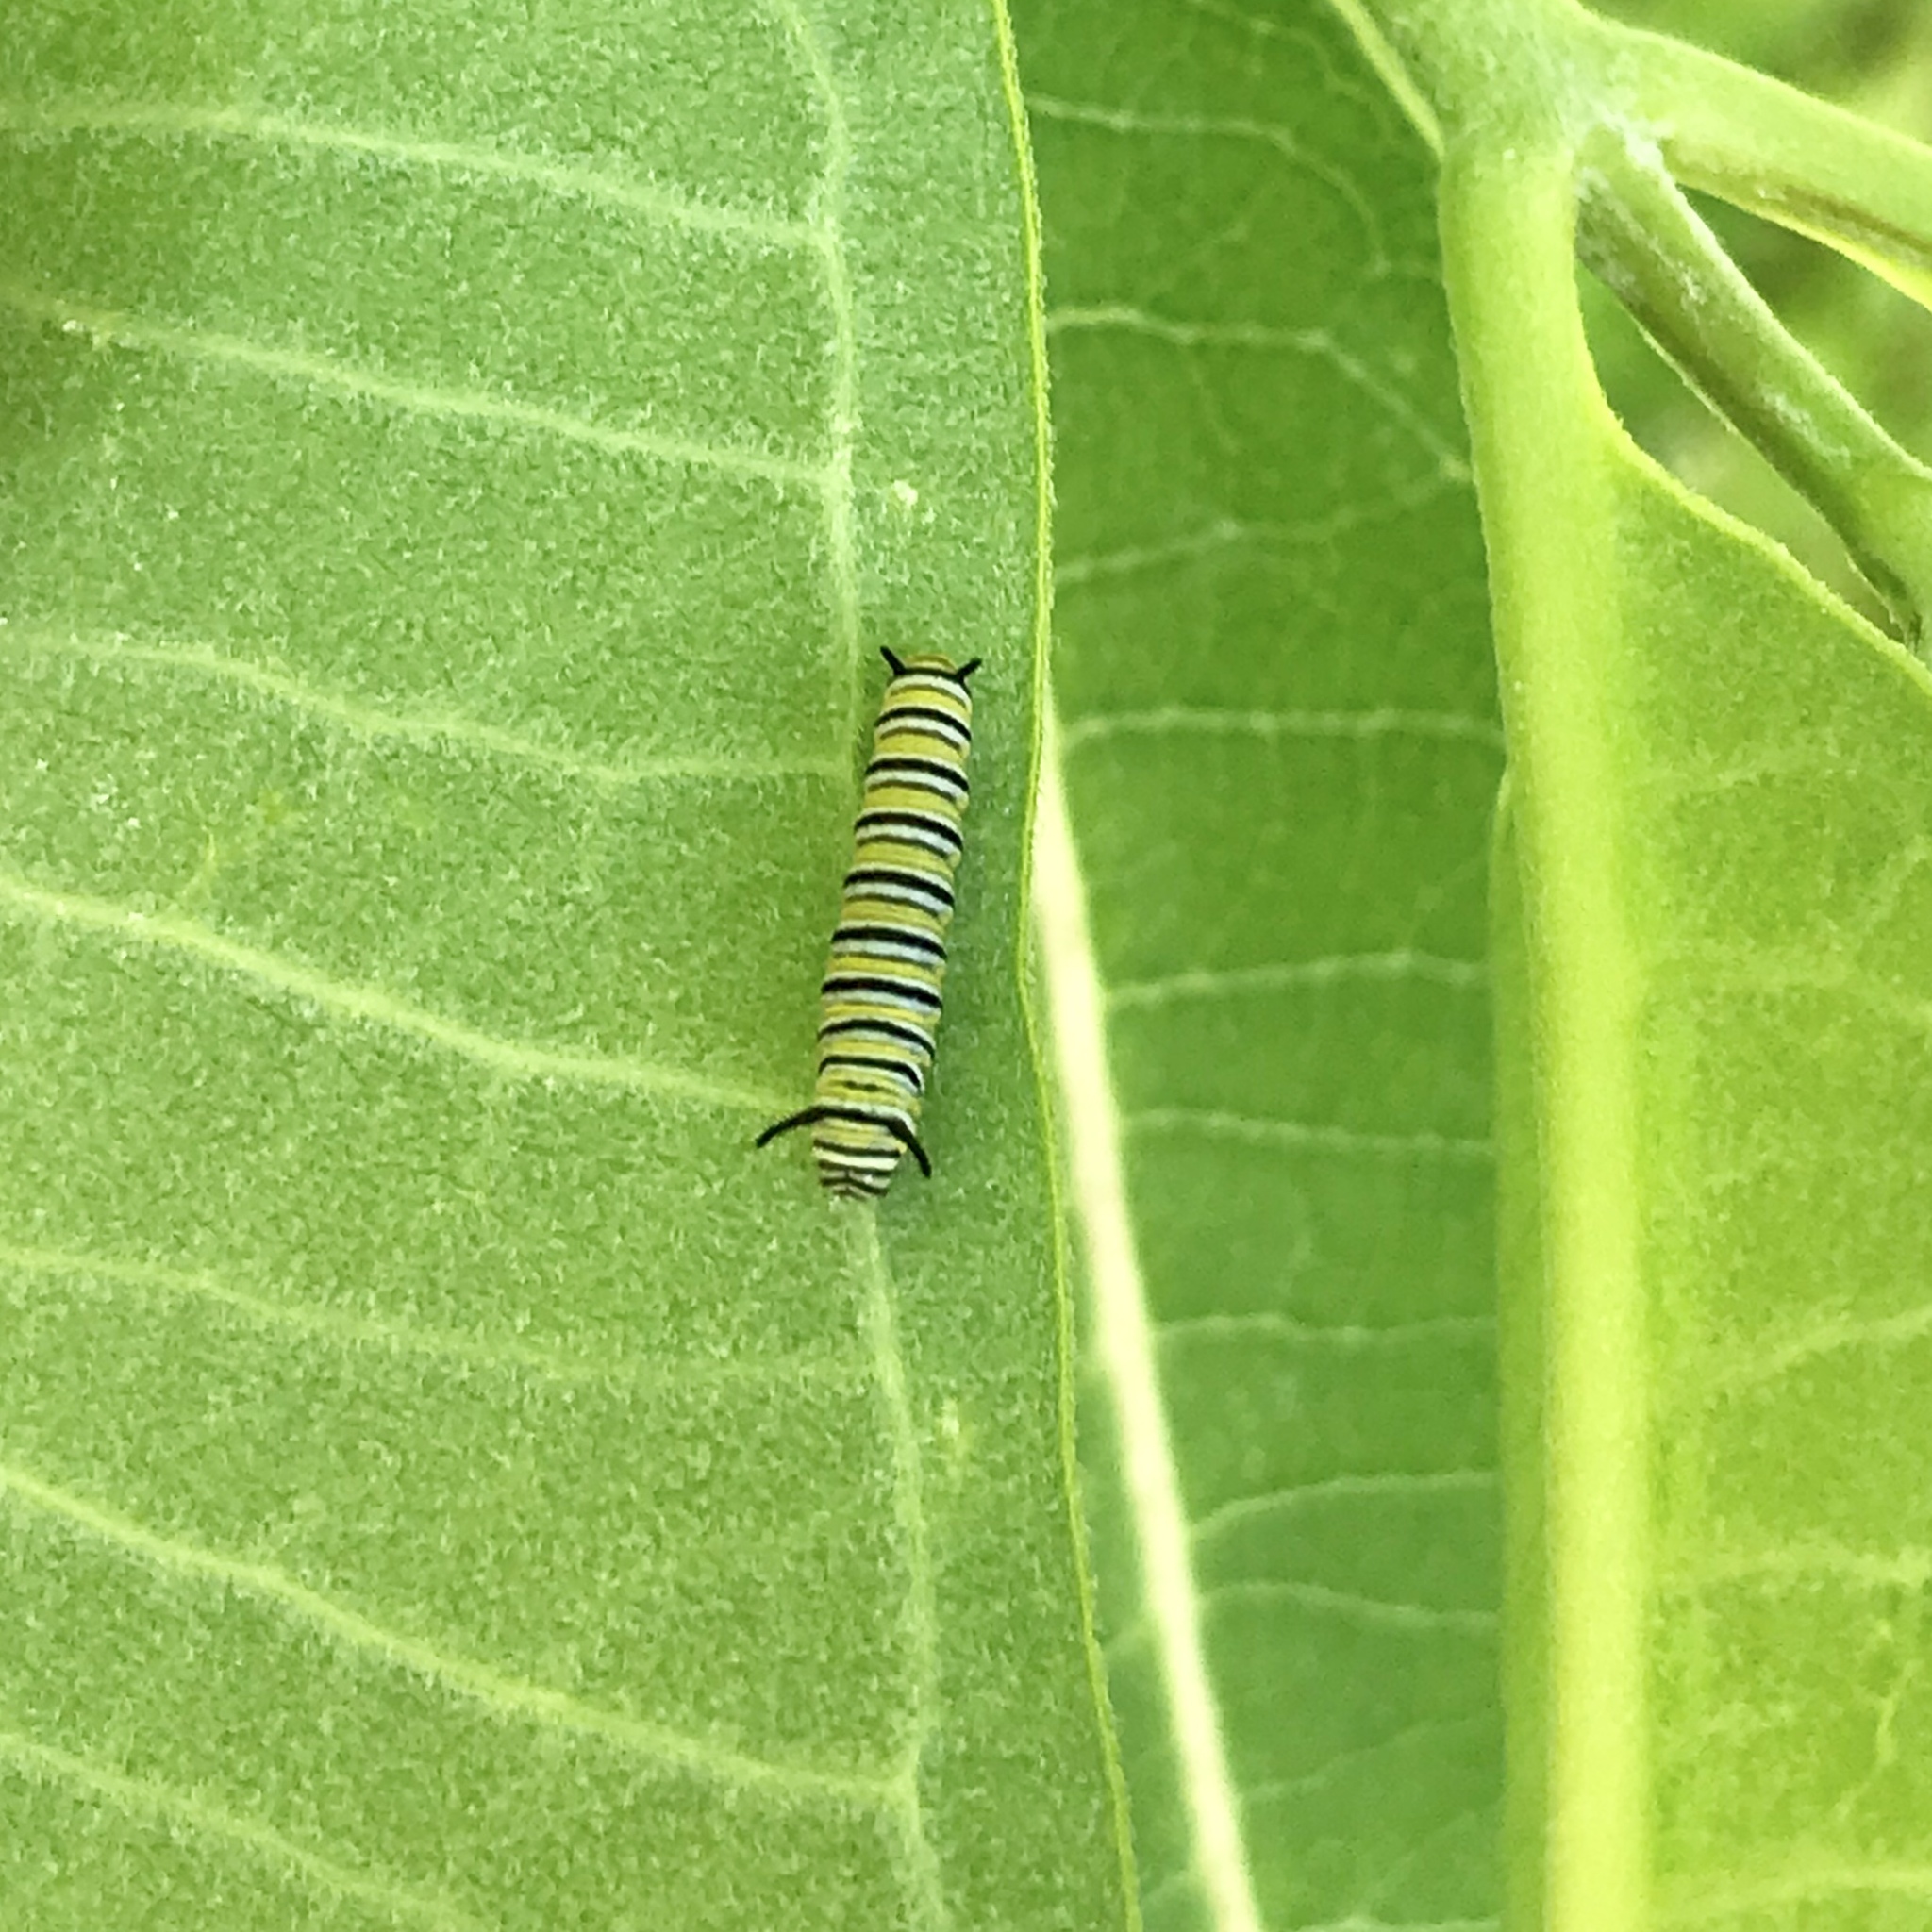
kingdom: Animalia
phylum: Arthropoda
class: Insecta
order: Lepidoptera
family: Nymphalidae
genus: Danaus
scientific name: Danaus plexippus
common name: Monarch
